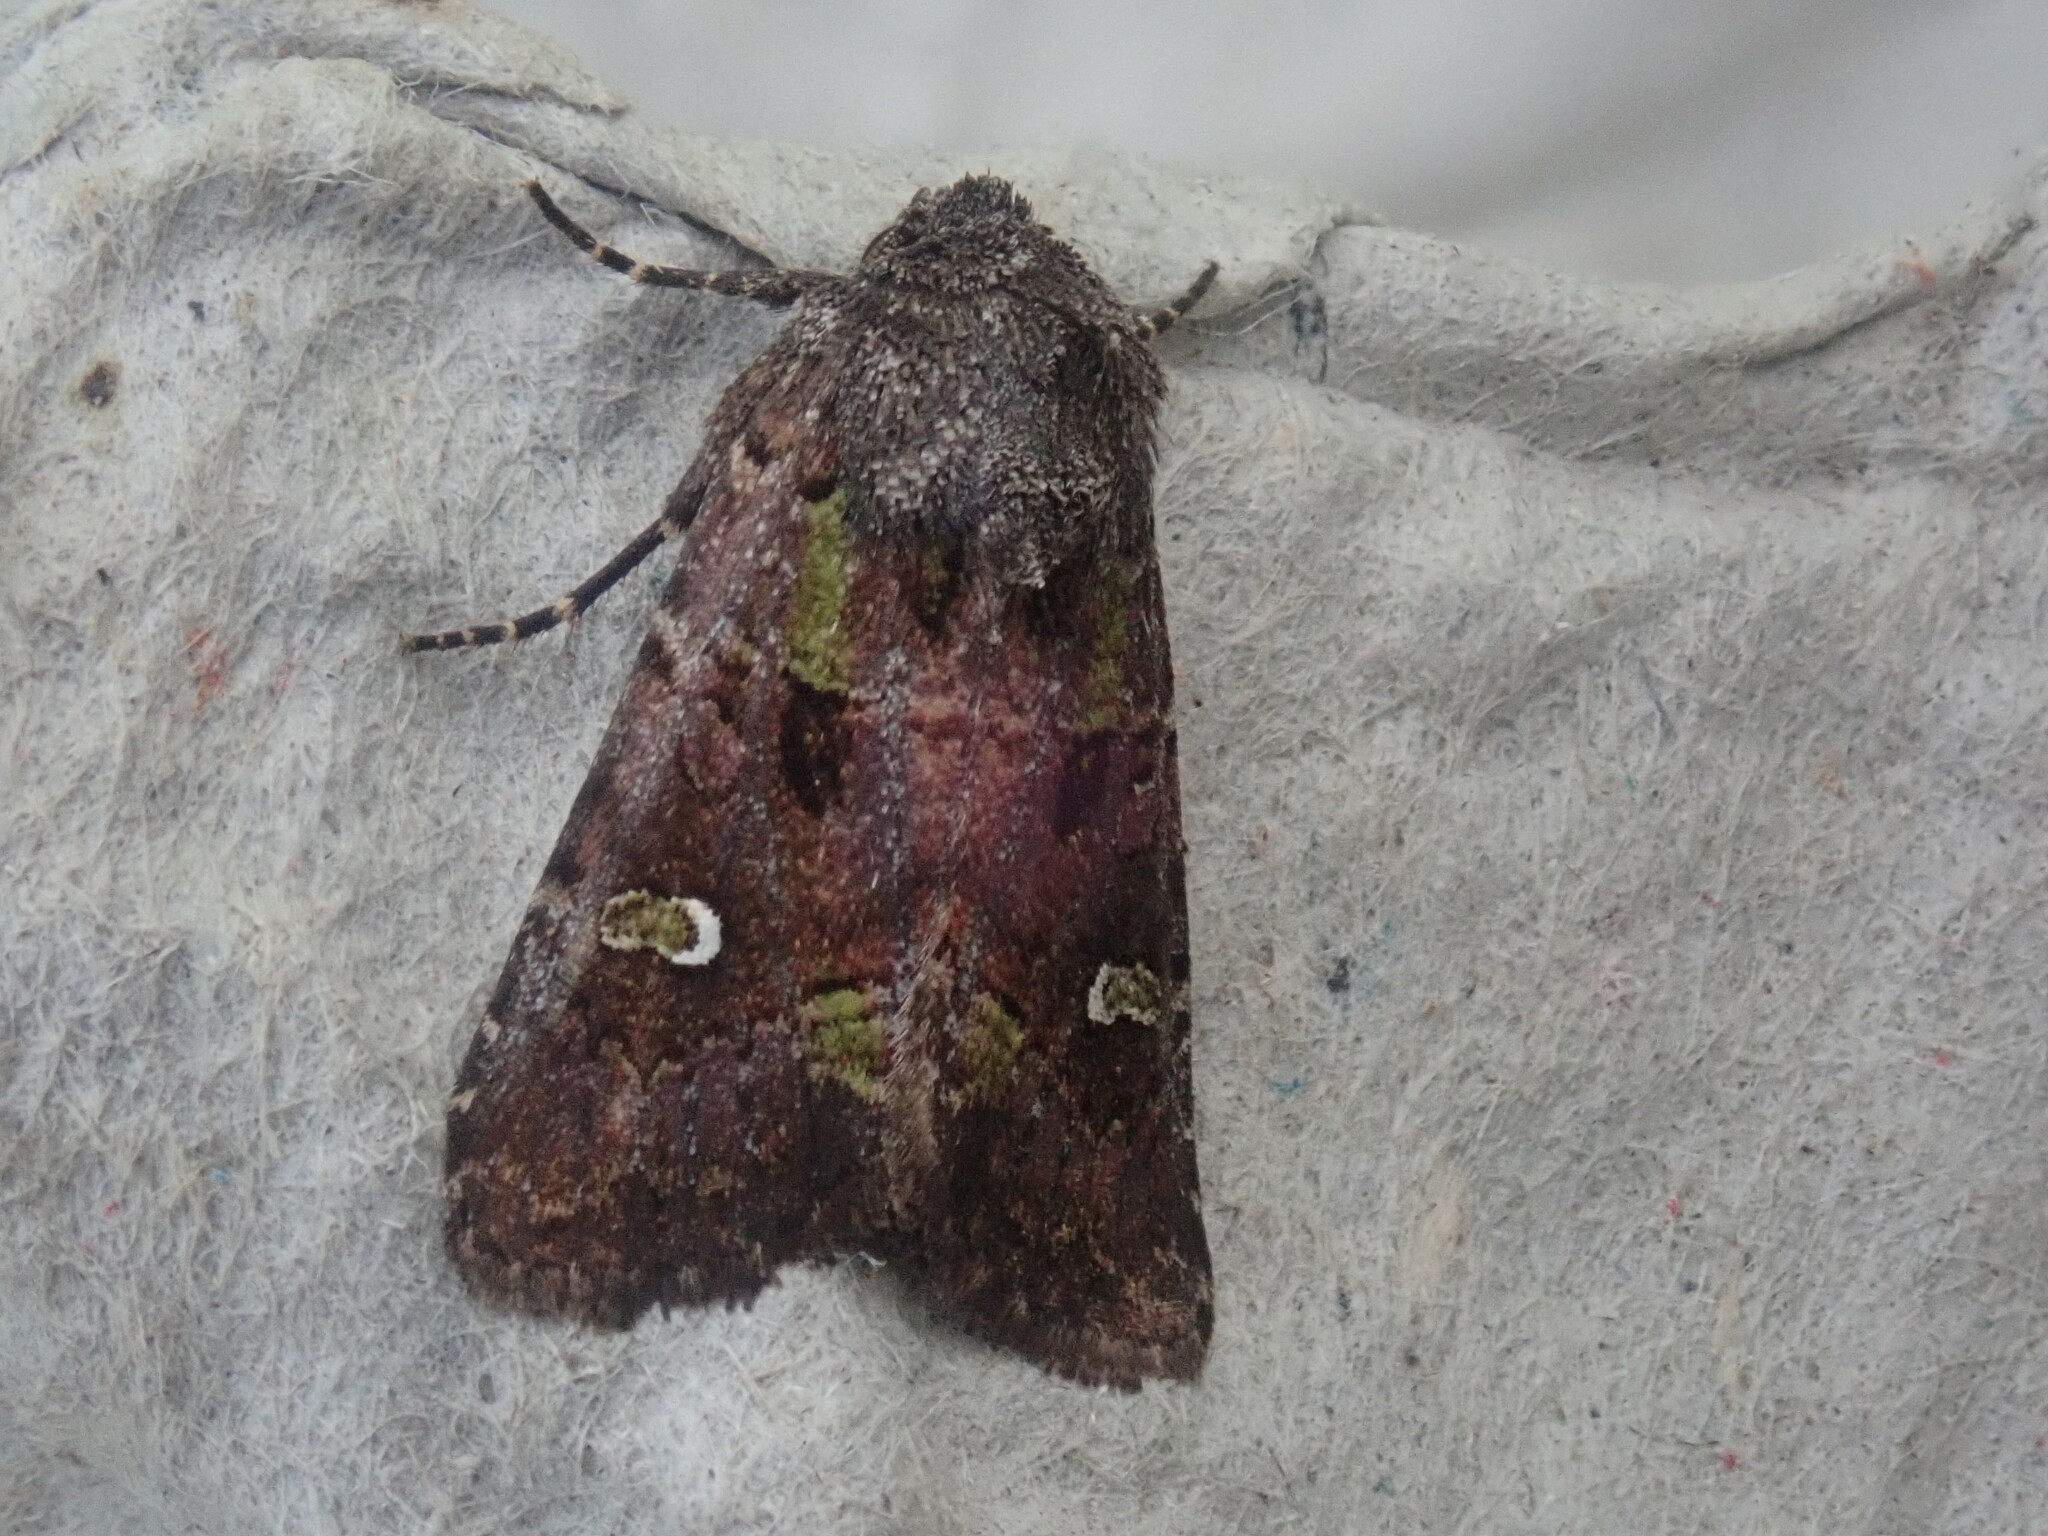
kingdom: Animalia
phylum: Arthropoda
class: Insecta
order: Lepidoptera
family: Noctuidae
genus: Lacinipolia
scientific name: Lacinipolia renigera
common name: Kidney-spotted minor
